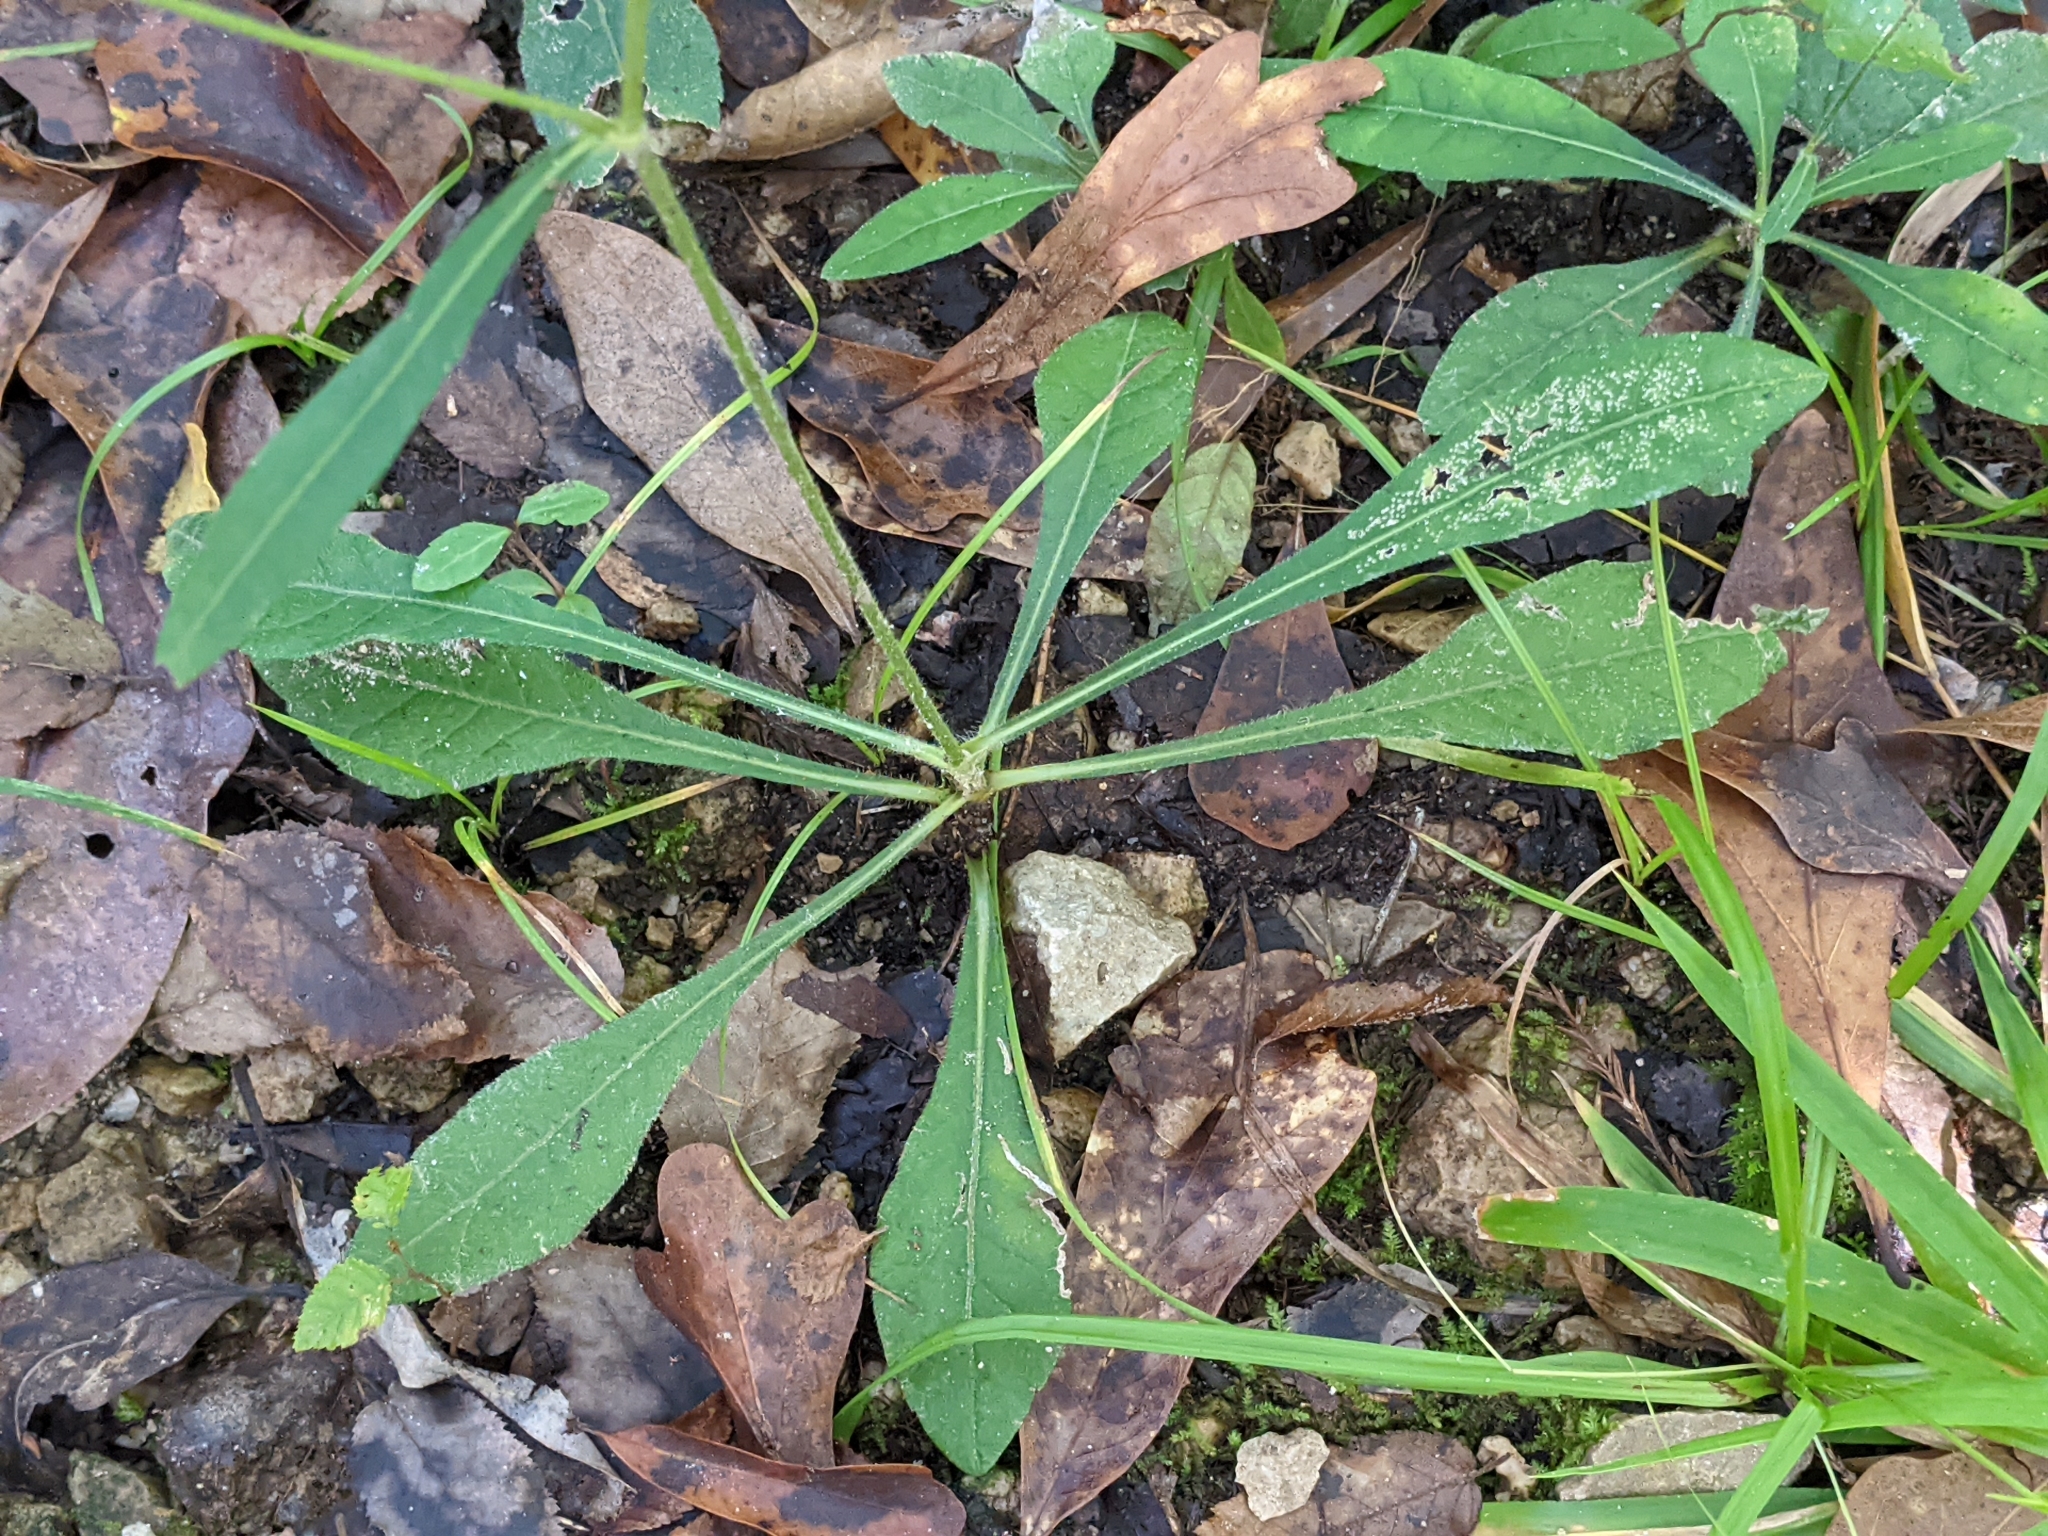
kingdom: Plantae
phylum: Tracheophyta
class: Magnoliopsida
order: Asterales
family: Asteraceae
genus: Elephantopus
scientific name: Elephantopus nudatus
